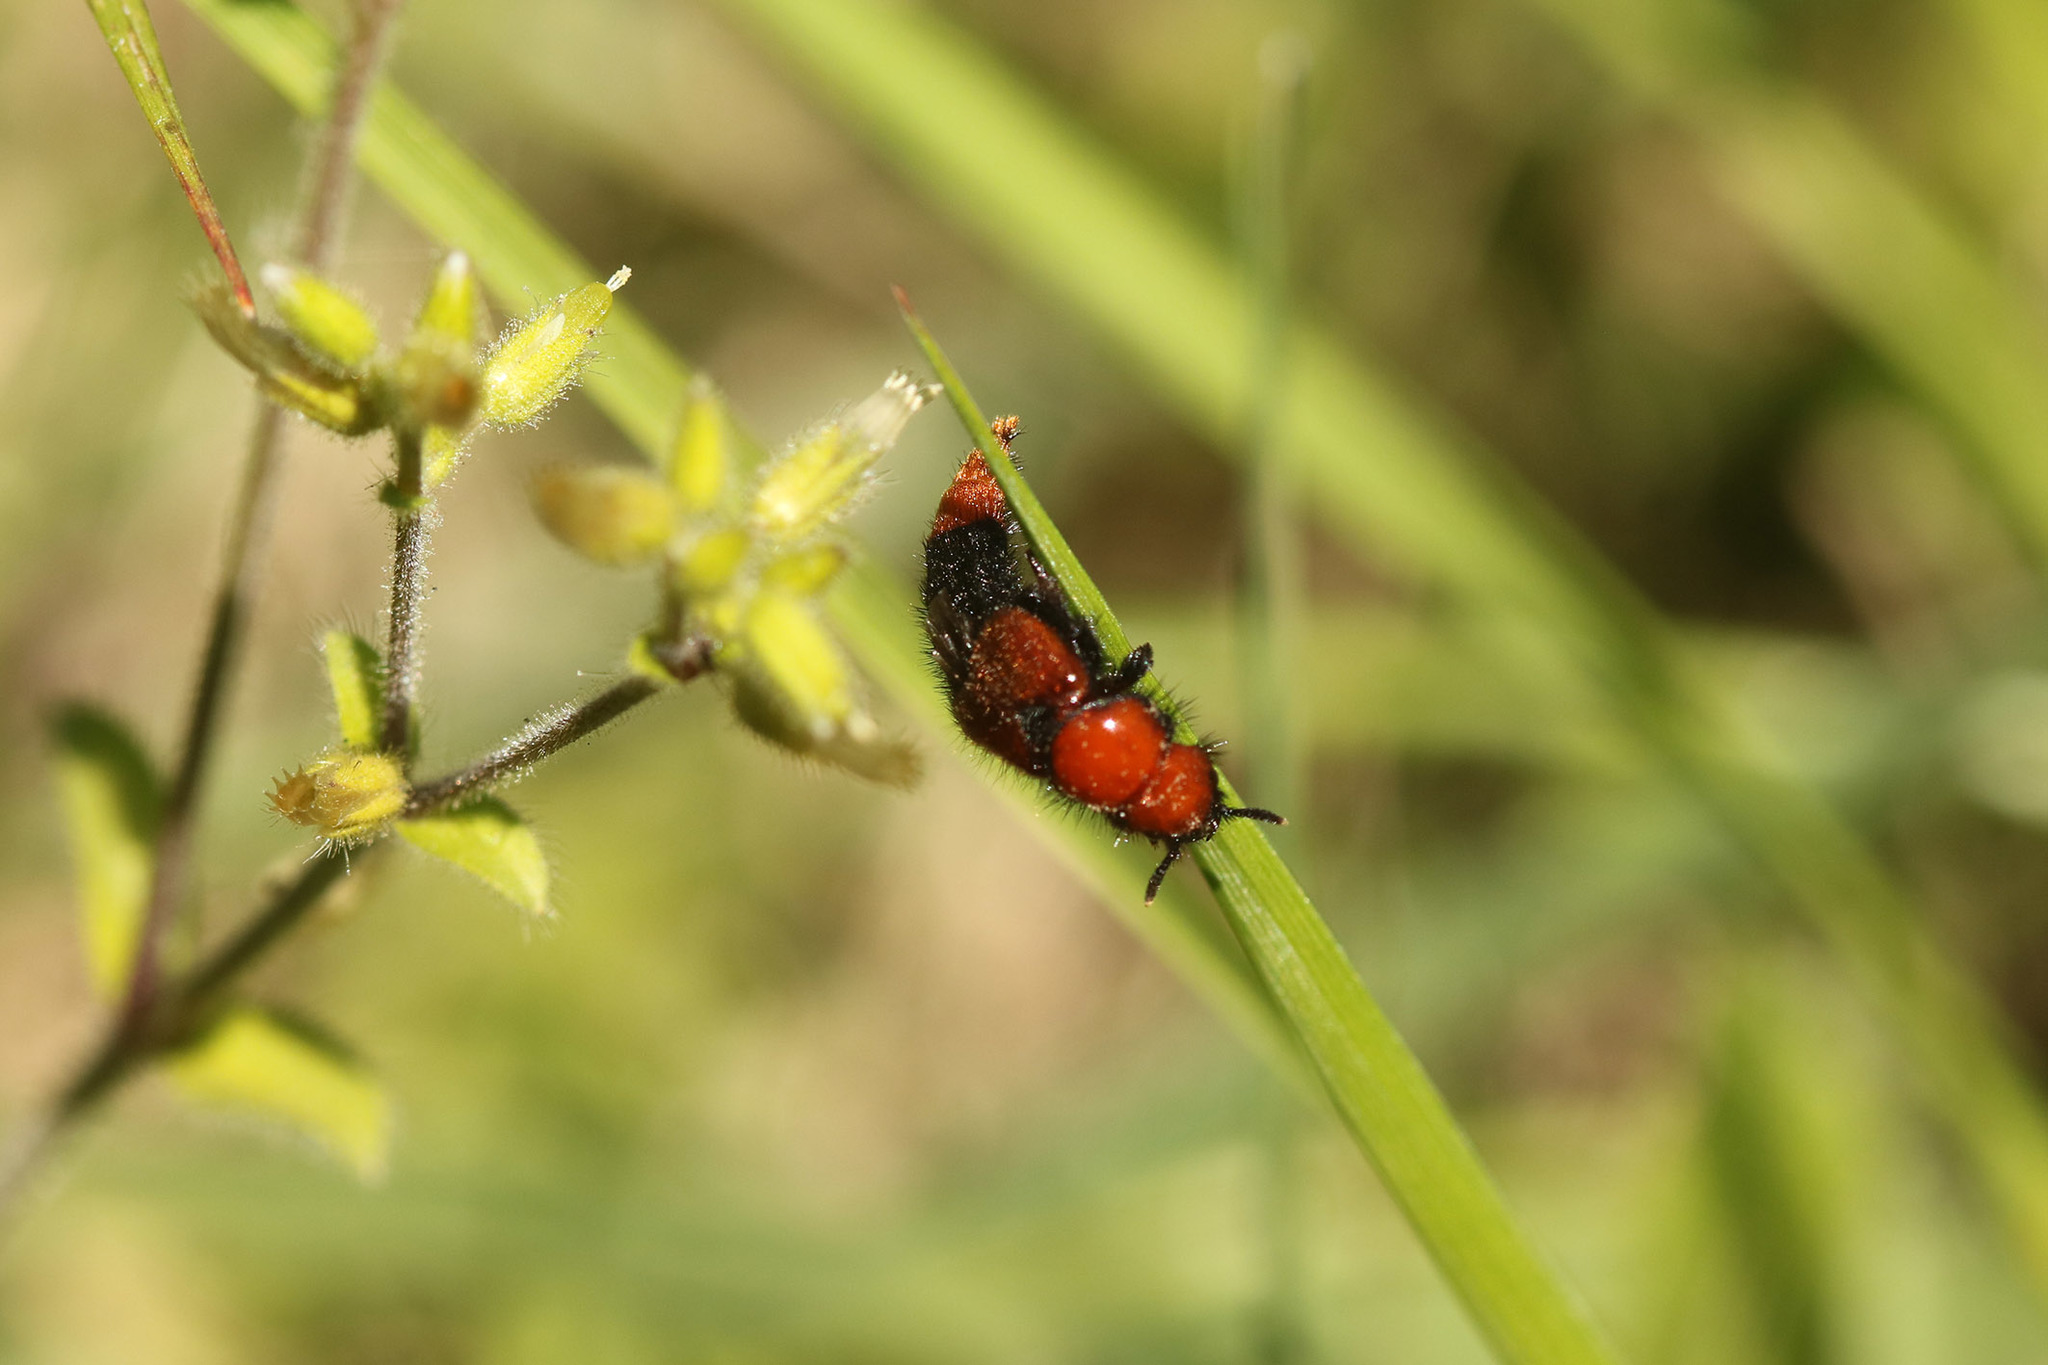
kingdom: Animalia
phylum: Arthropoda
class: Insecta
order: Coleoptera
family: Staphylinidae
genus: Haematodes
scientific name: Haematodes bicolor
